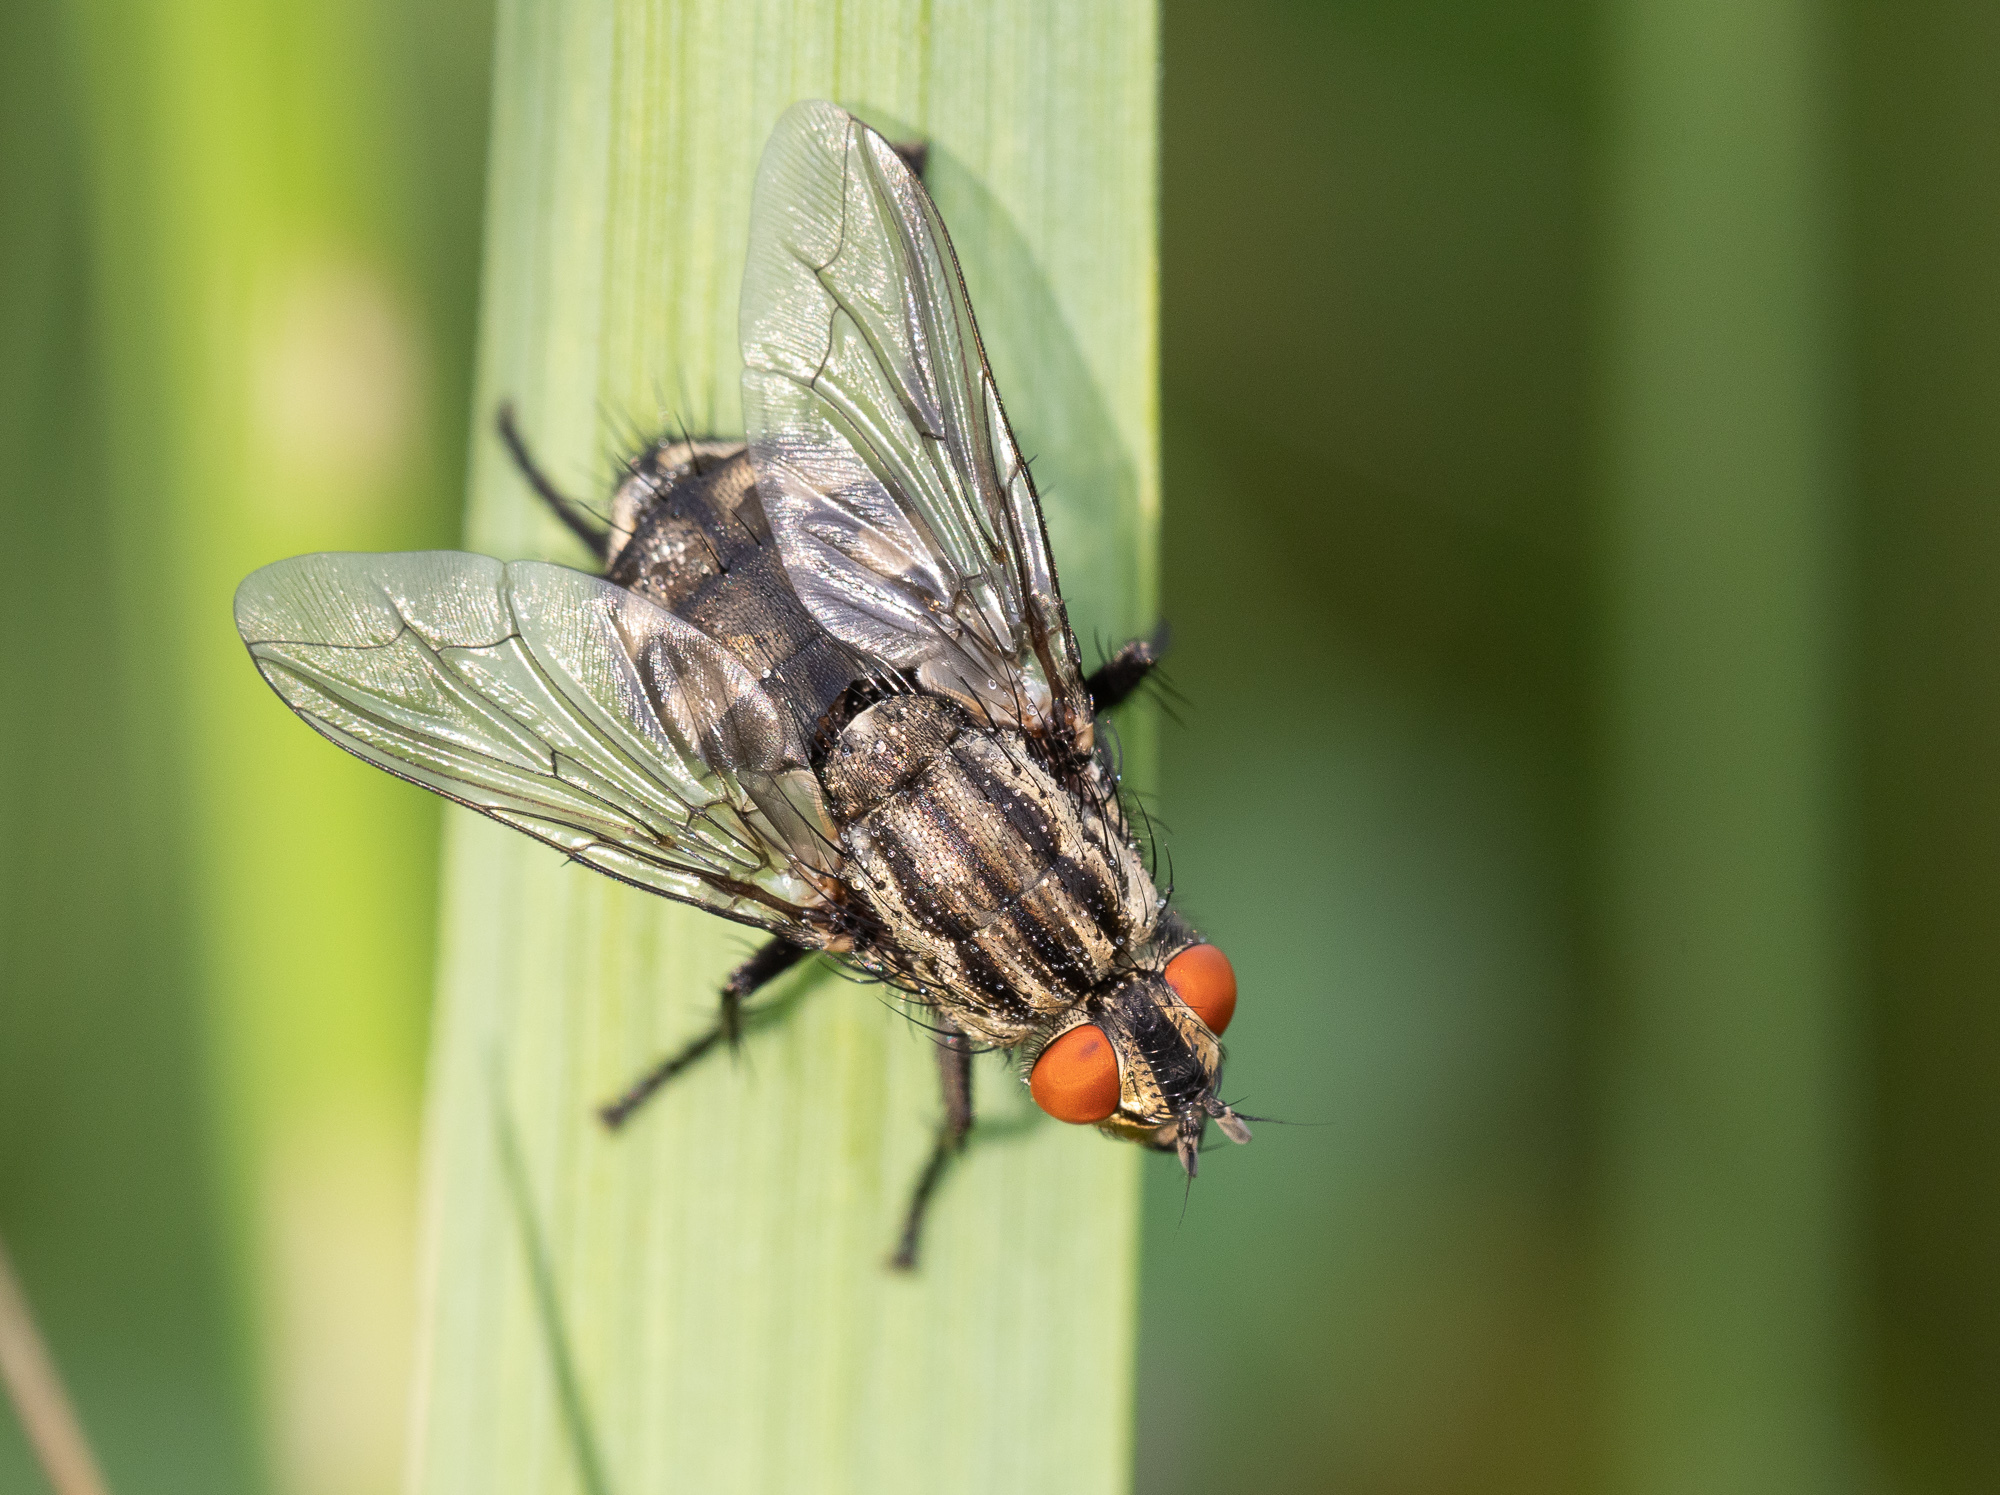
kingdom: Animalia
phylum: Arthropoda
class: Insecta
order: Diptera
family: Sarcophagidae
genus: Sarcophaga
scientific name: Sarcophaga
